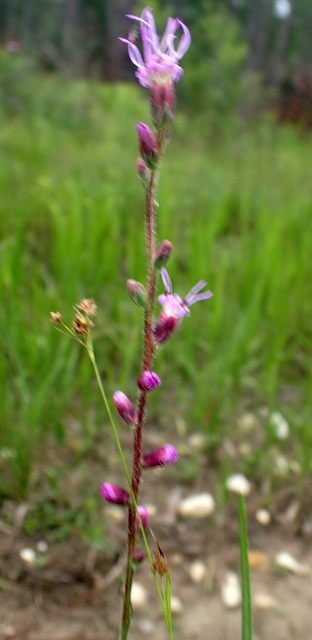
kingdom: Plantae
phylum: Tracheophyta
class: Magnoliopsida
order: Asterales
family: Asteraceae
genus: Liatris
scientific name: Liatris spicata
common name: Florist gayfeather
